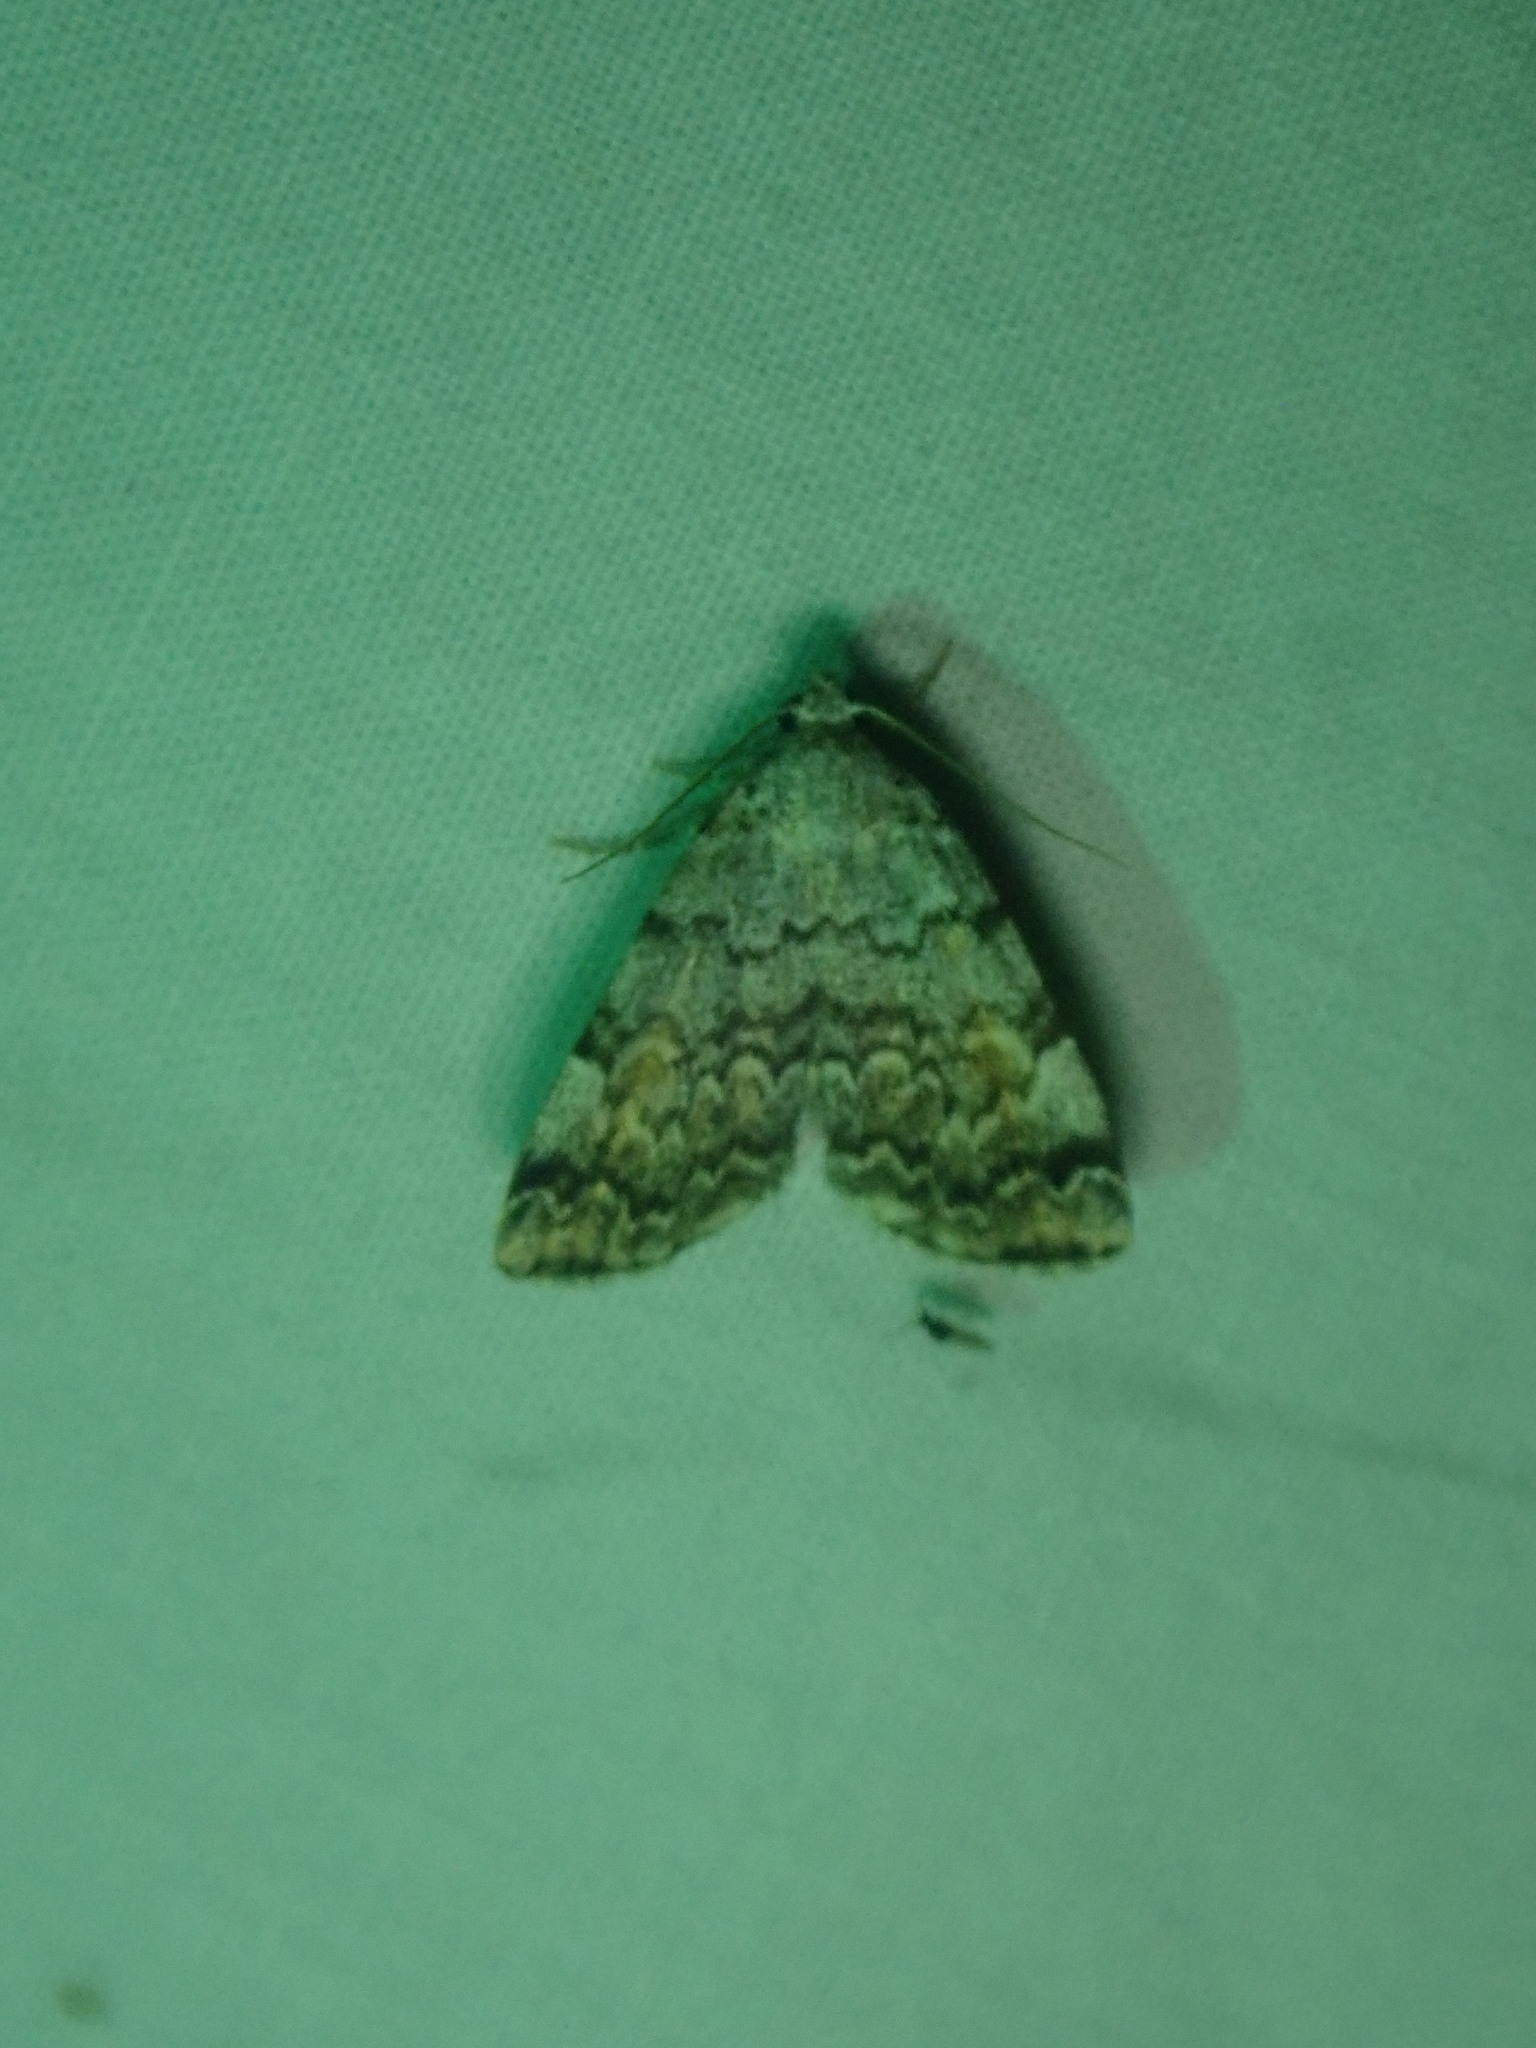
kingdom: Animalia
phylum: Arthropoda
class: Insecta
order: Lepidoptera
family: Erebidae
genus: Idia
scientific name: Idia americalis
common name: American idia moth
